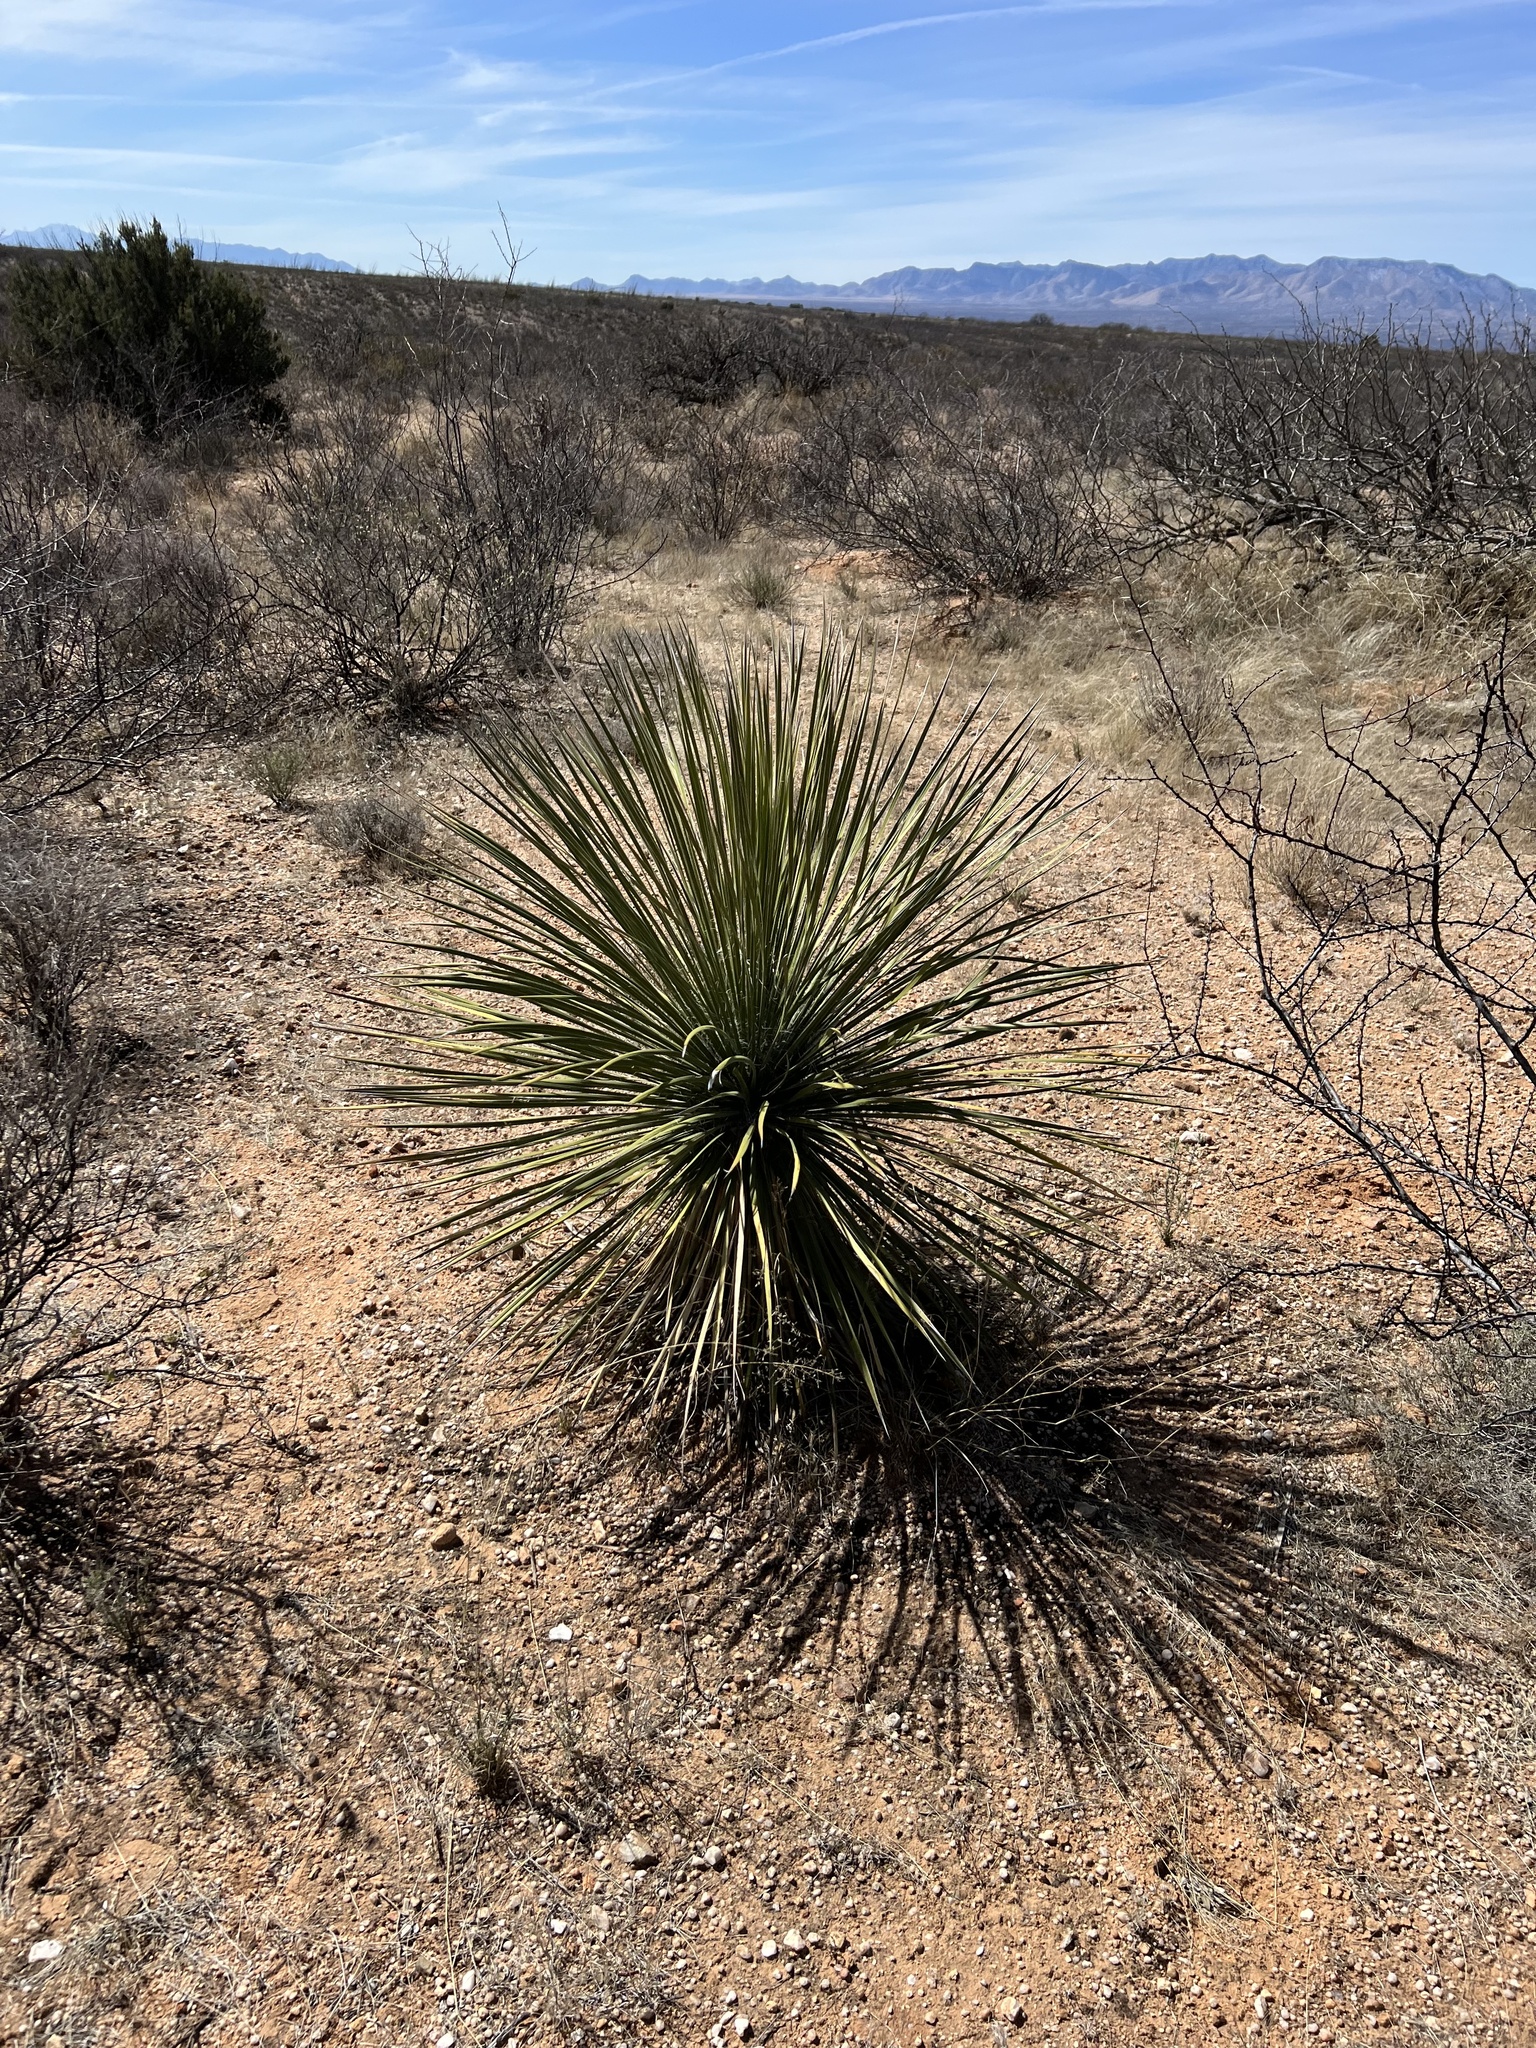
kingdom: Plantae
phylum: Tracheophyta
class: Liliopsida
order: Asparagales
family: Asparagaceae
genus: Yucca
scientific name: Yucca elata
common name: Palmella
